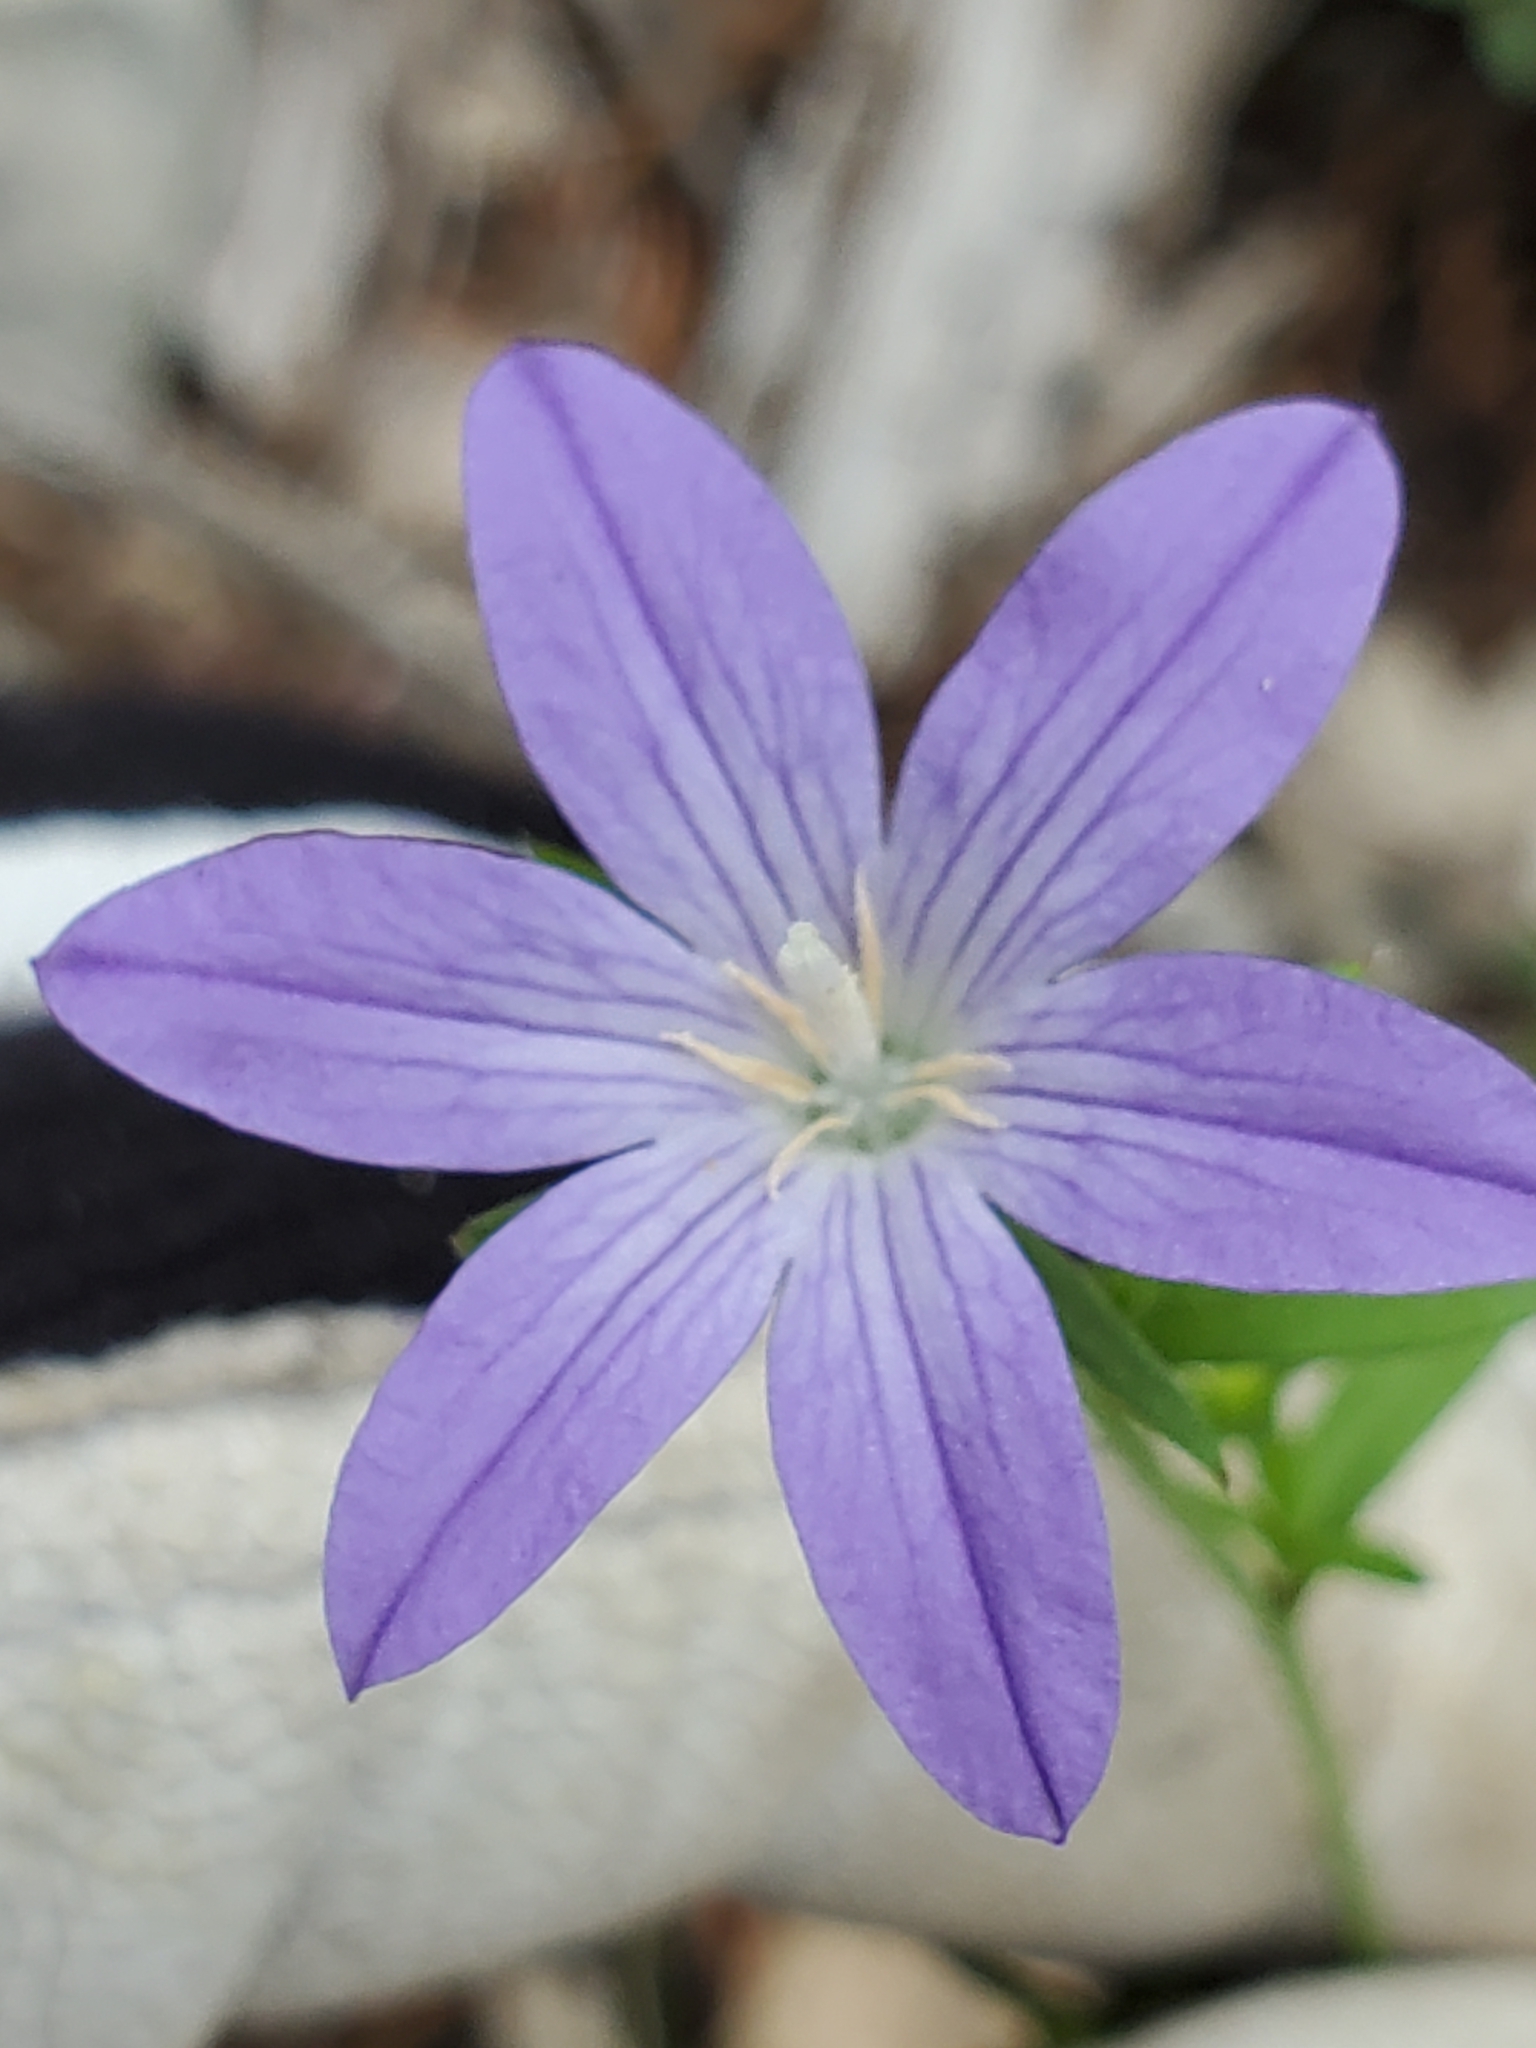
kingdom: Plantae
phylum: Tracheophyta
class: Magnoliopsida
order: Asterales
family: Campanulaceae
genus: Triodanis
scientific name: Triodanis coloradoensis
